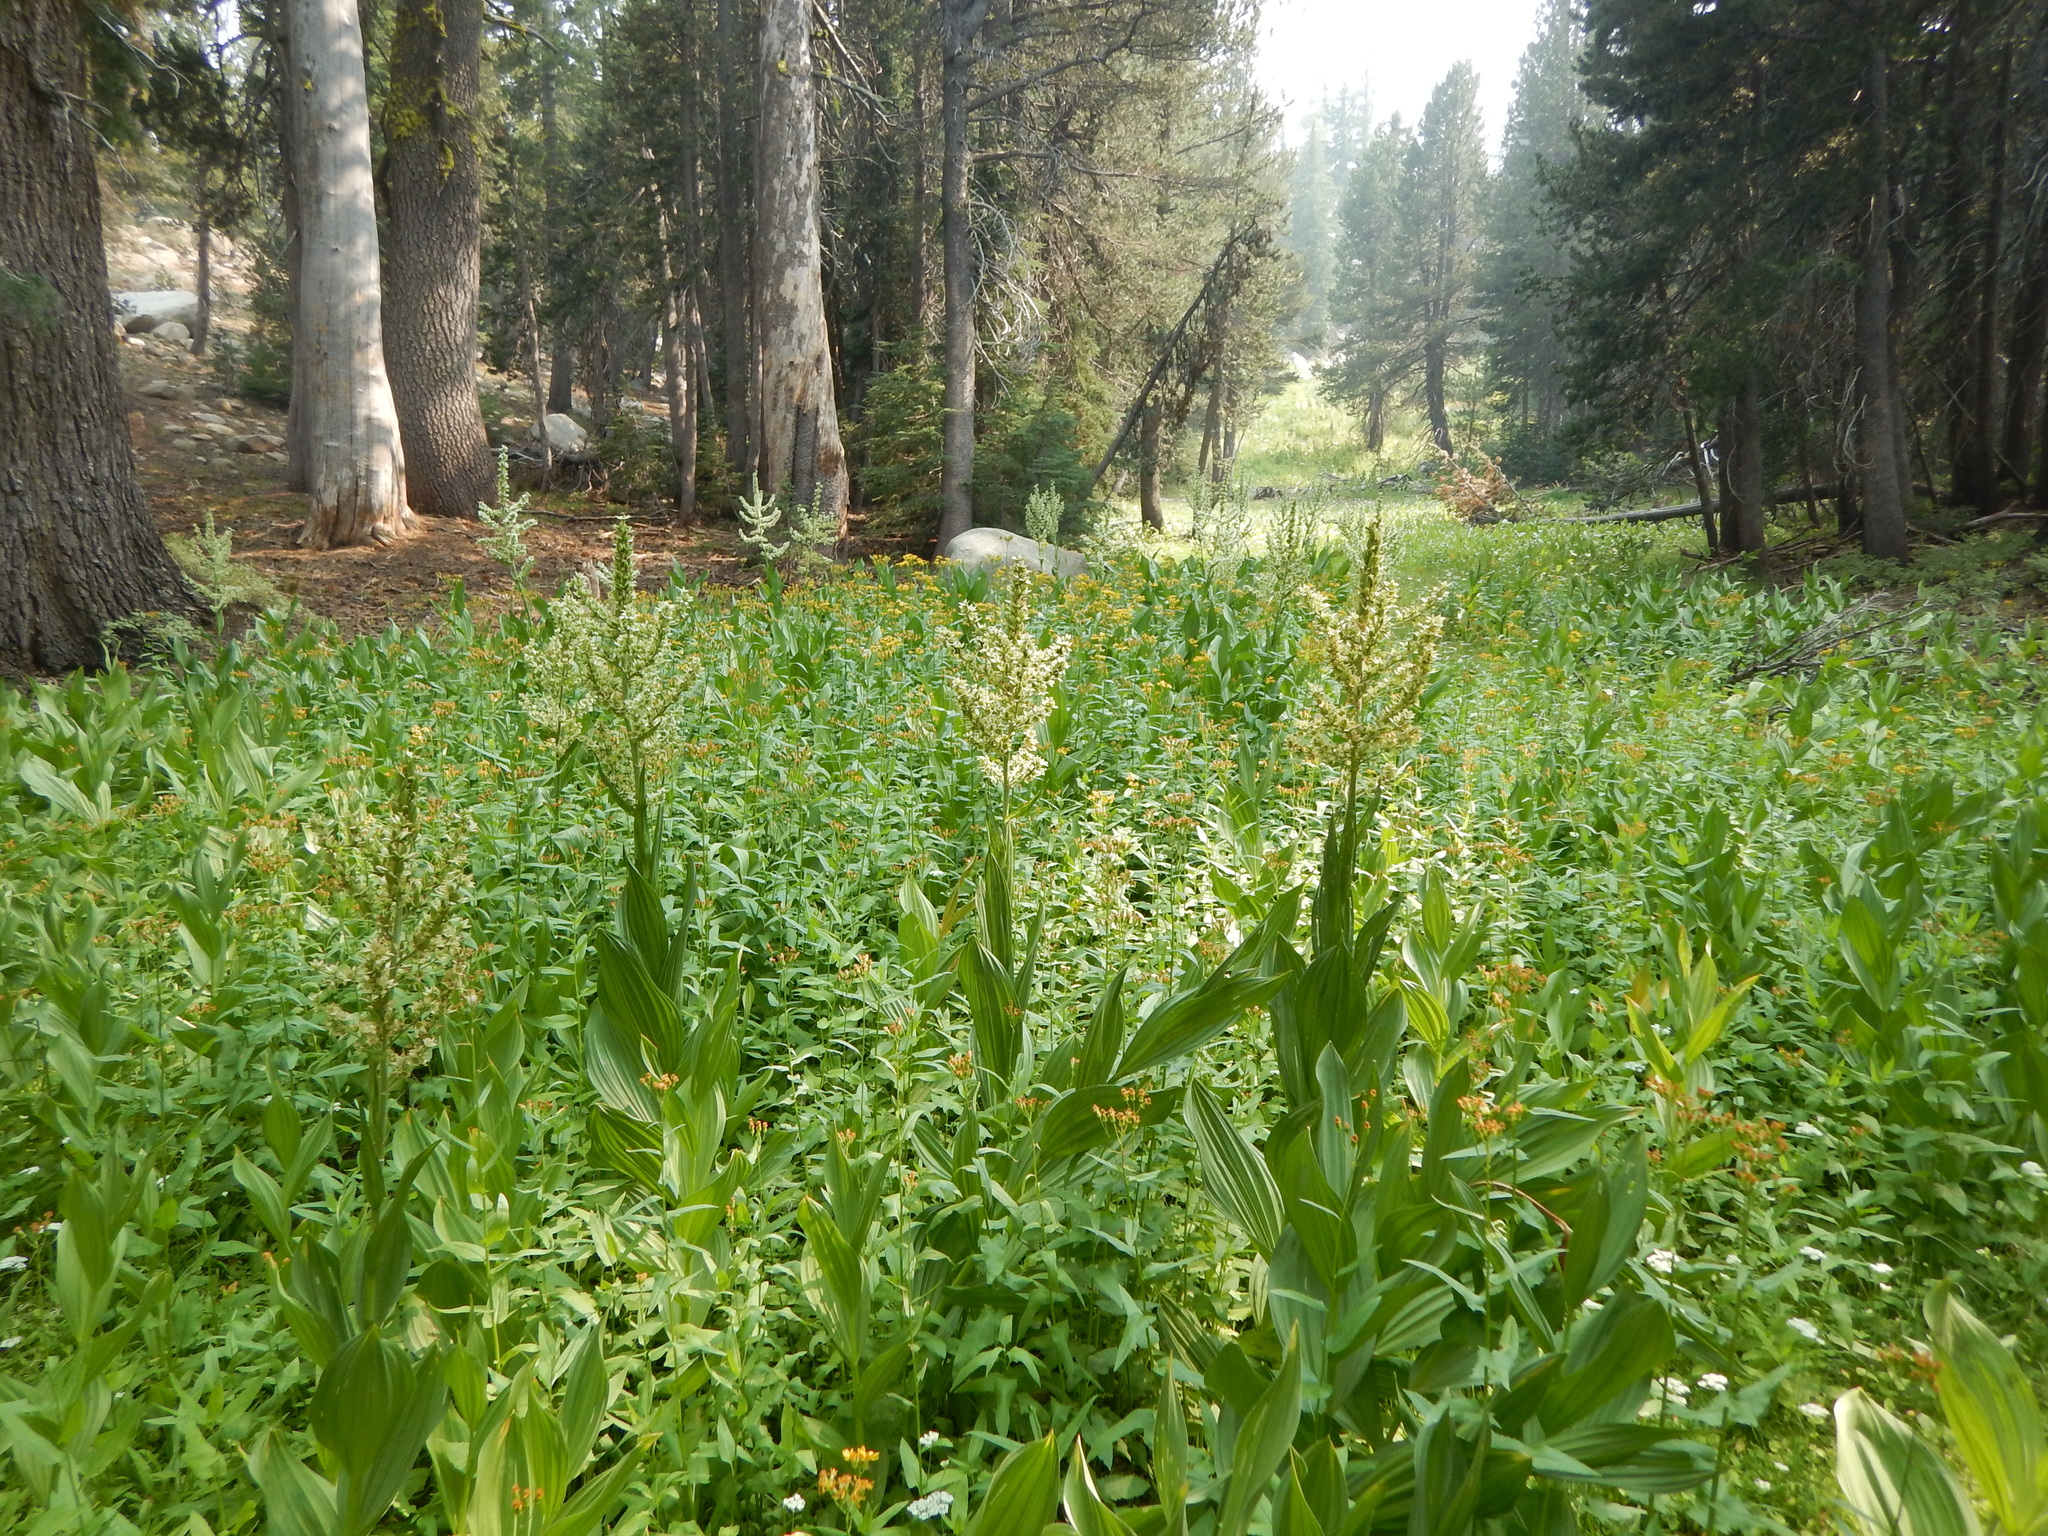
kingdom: Plantae
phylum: Tracheophyta
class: Liliopsida
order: Liliales
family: Melanthiaceae
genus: Veratrum
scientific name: Veratrum californicum
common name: California veratrum
